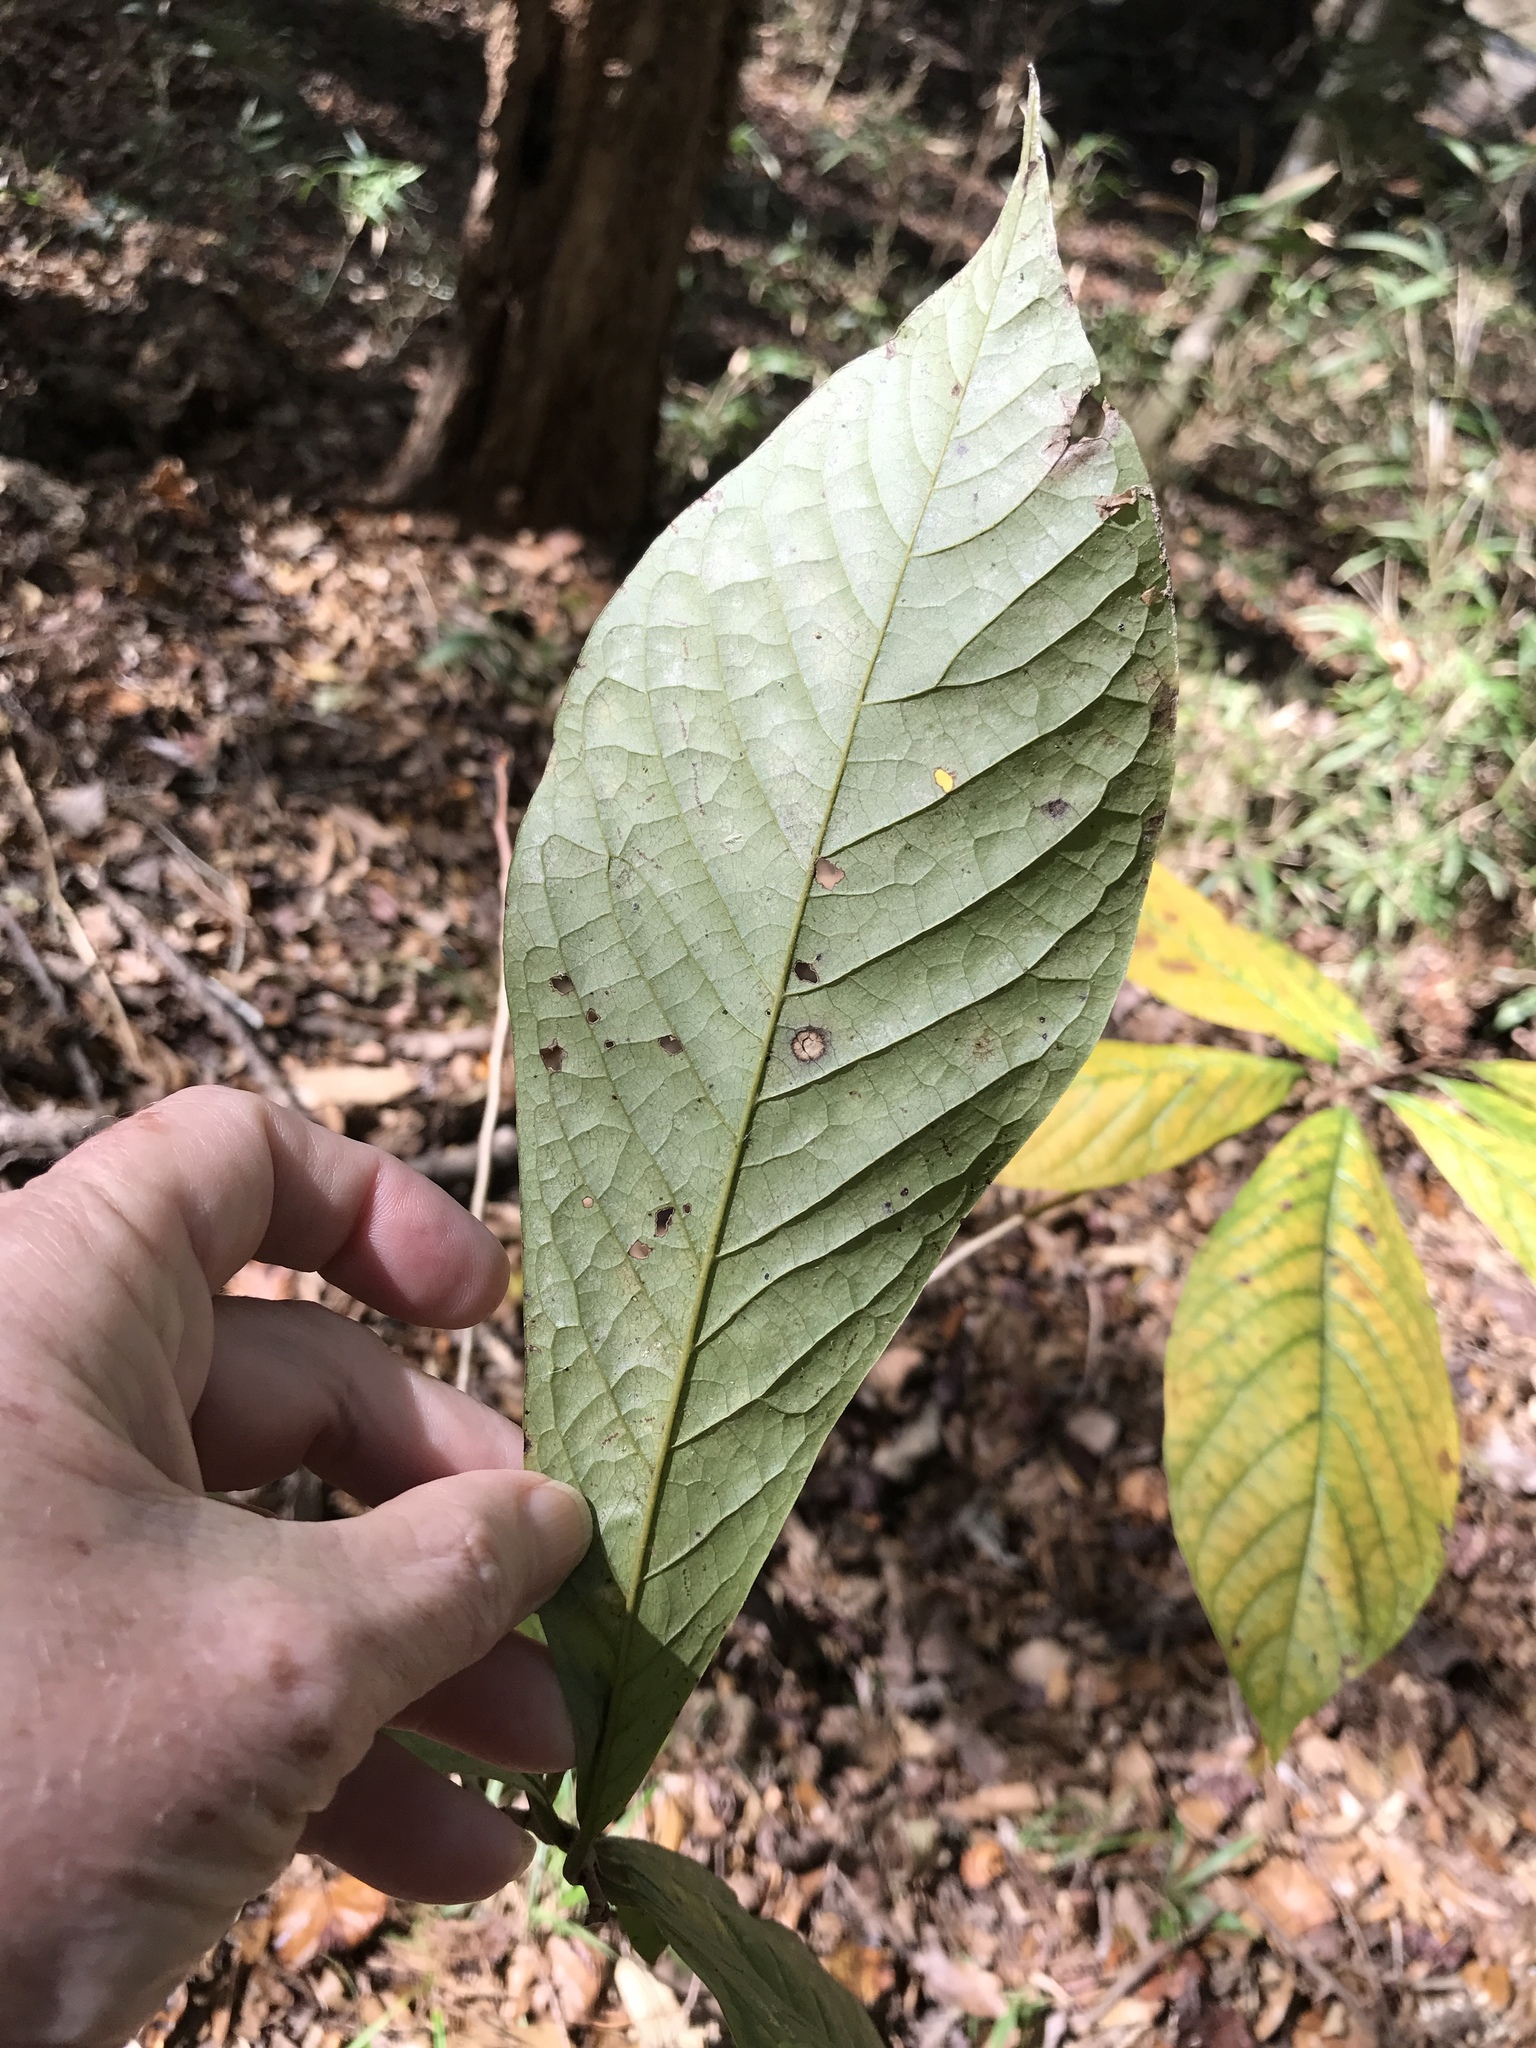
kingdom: Plantae
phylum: Tracheophyta
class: Magnoliopsida
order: Magnoliales
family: Annonaceae
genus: Asimina
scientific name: Asimina triloba
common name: Dog-banana
